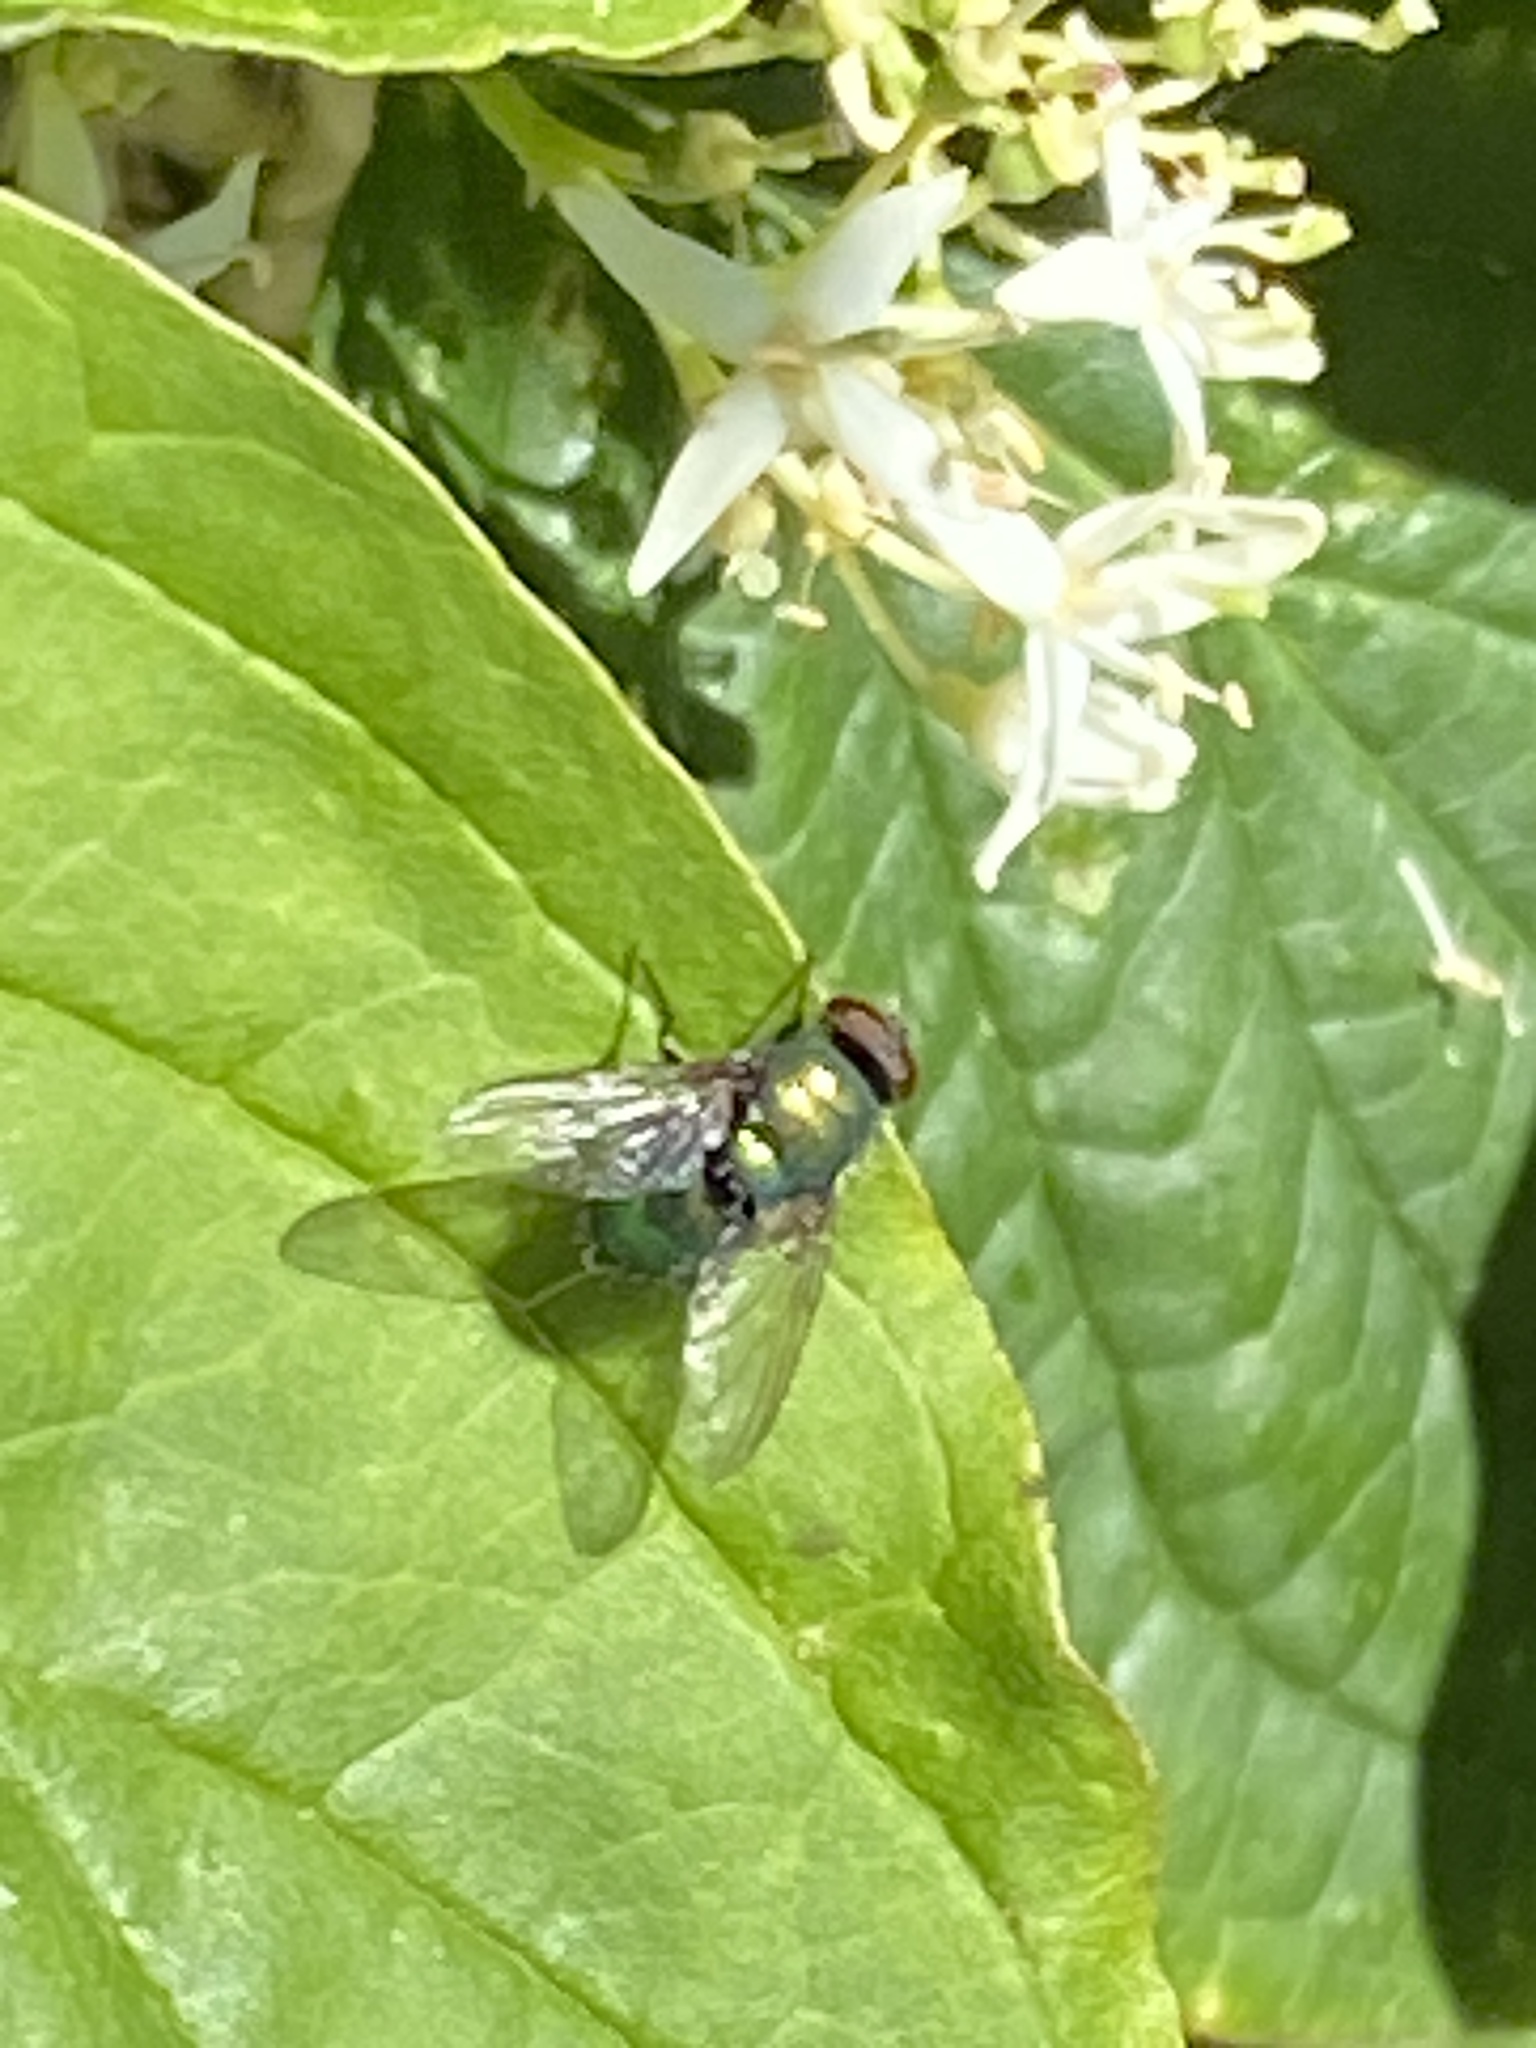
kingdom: Animalia
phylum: Arthropoda
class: Insecta
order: Diptera
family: Calliphoridae
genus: Lucilia
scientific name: Lucilia sericata
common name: Blow fly
